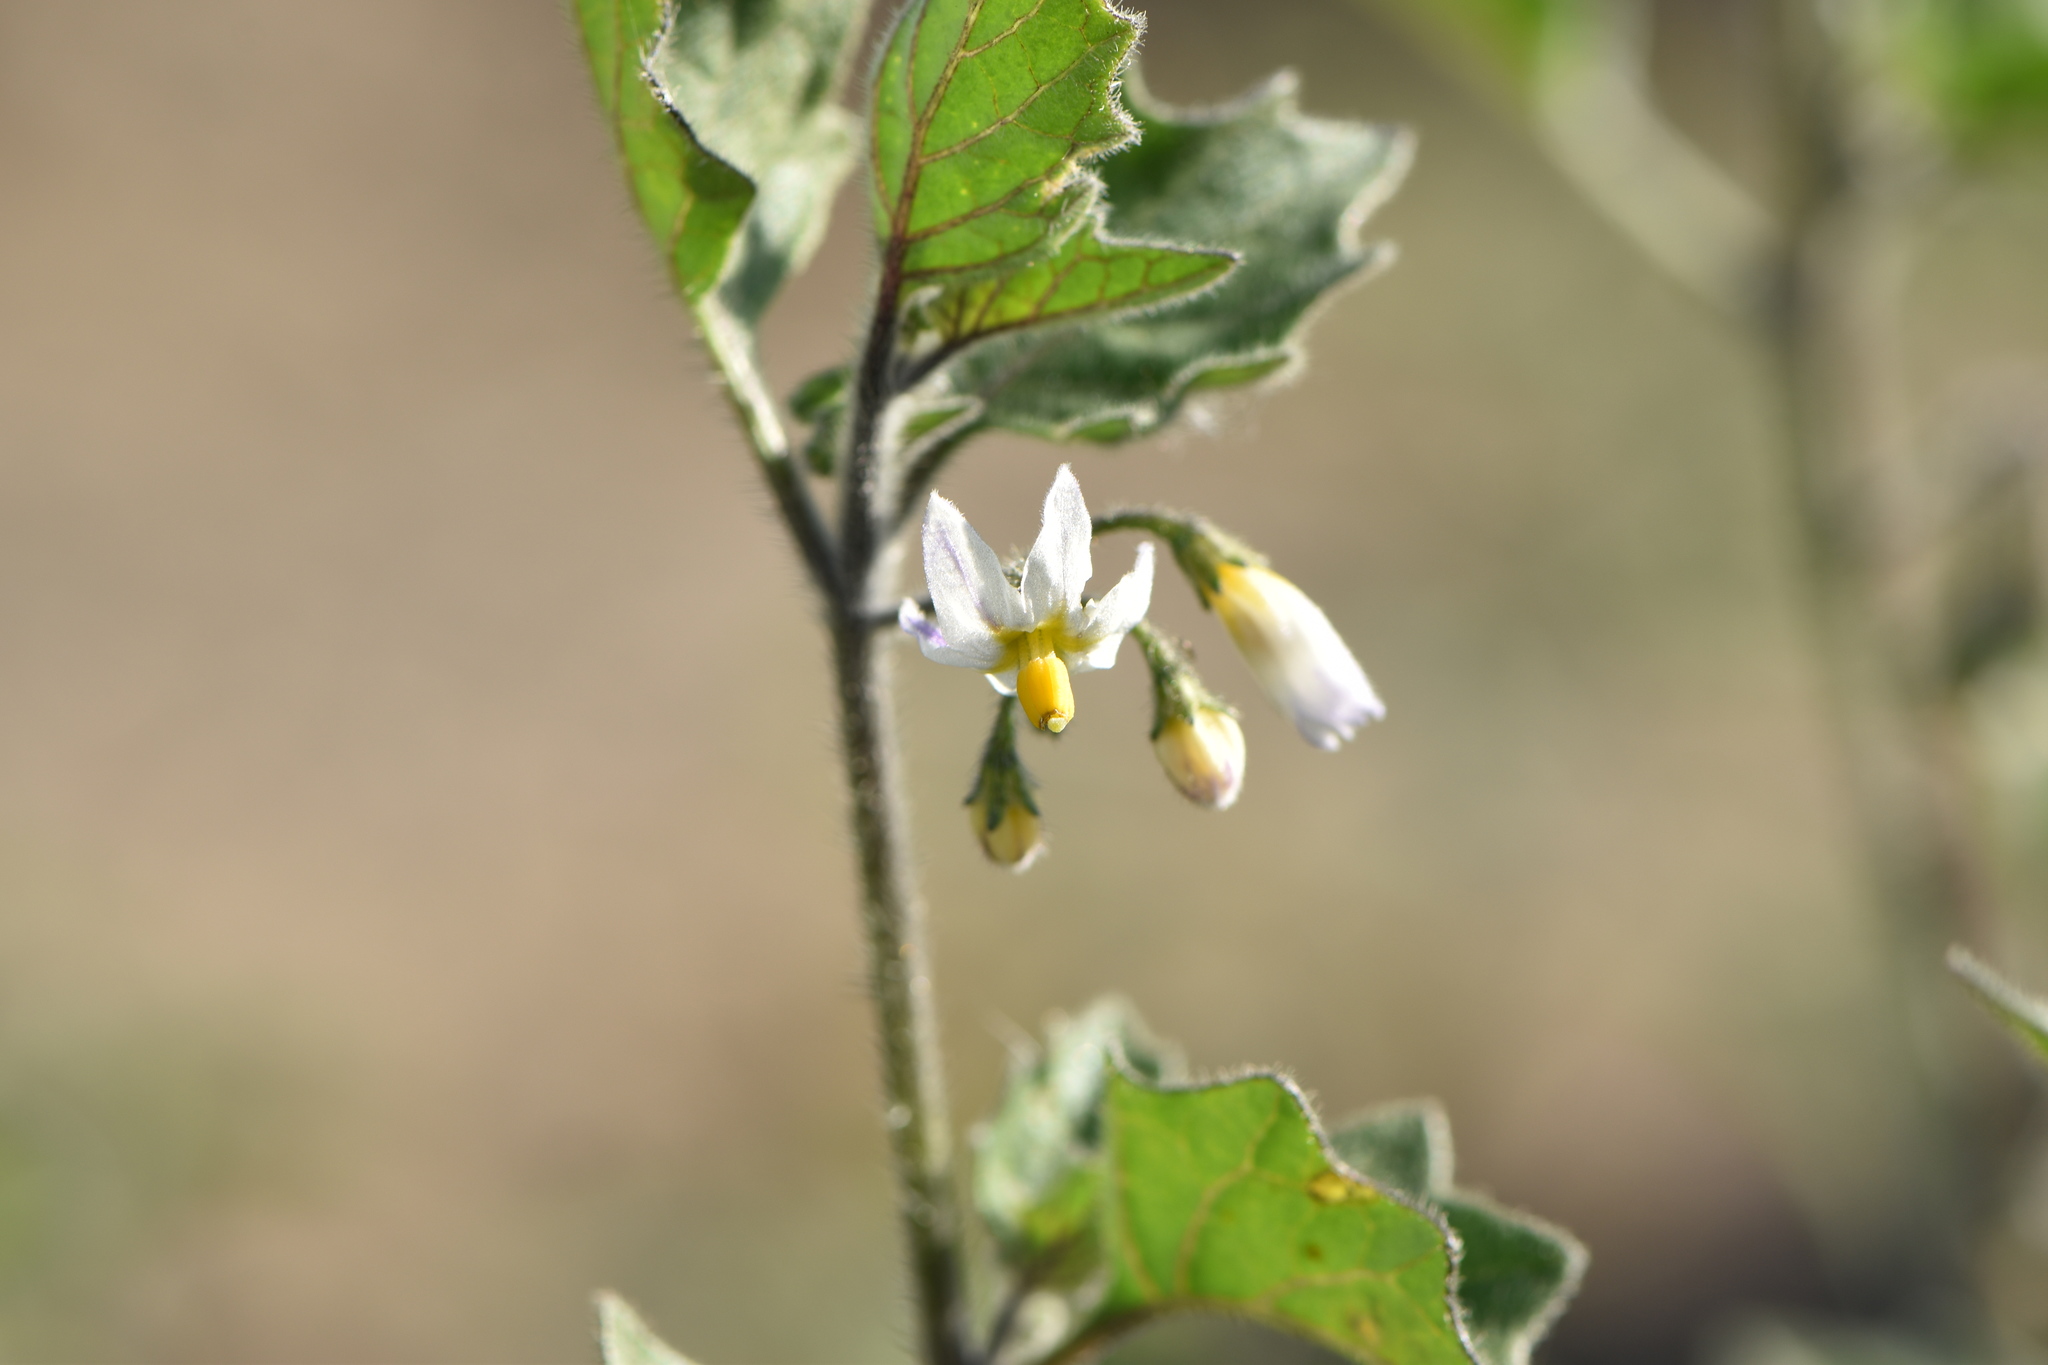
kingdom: Plantae
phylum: Tracheophyta
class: Magnoliopsida
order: Solanales
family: Solanaceae
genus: Solanum
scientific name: Solanum villosum
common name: Red nightshade
